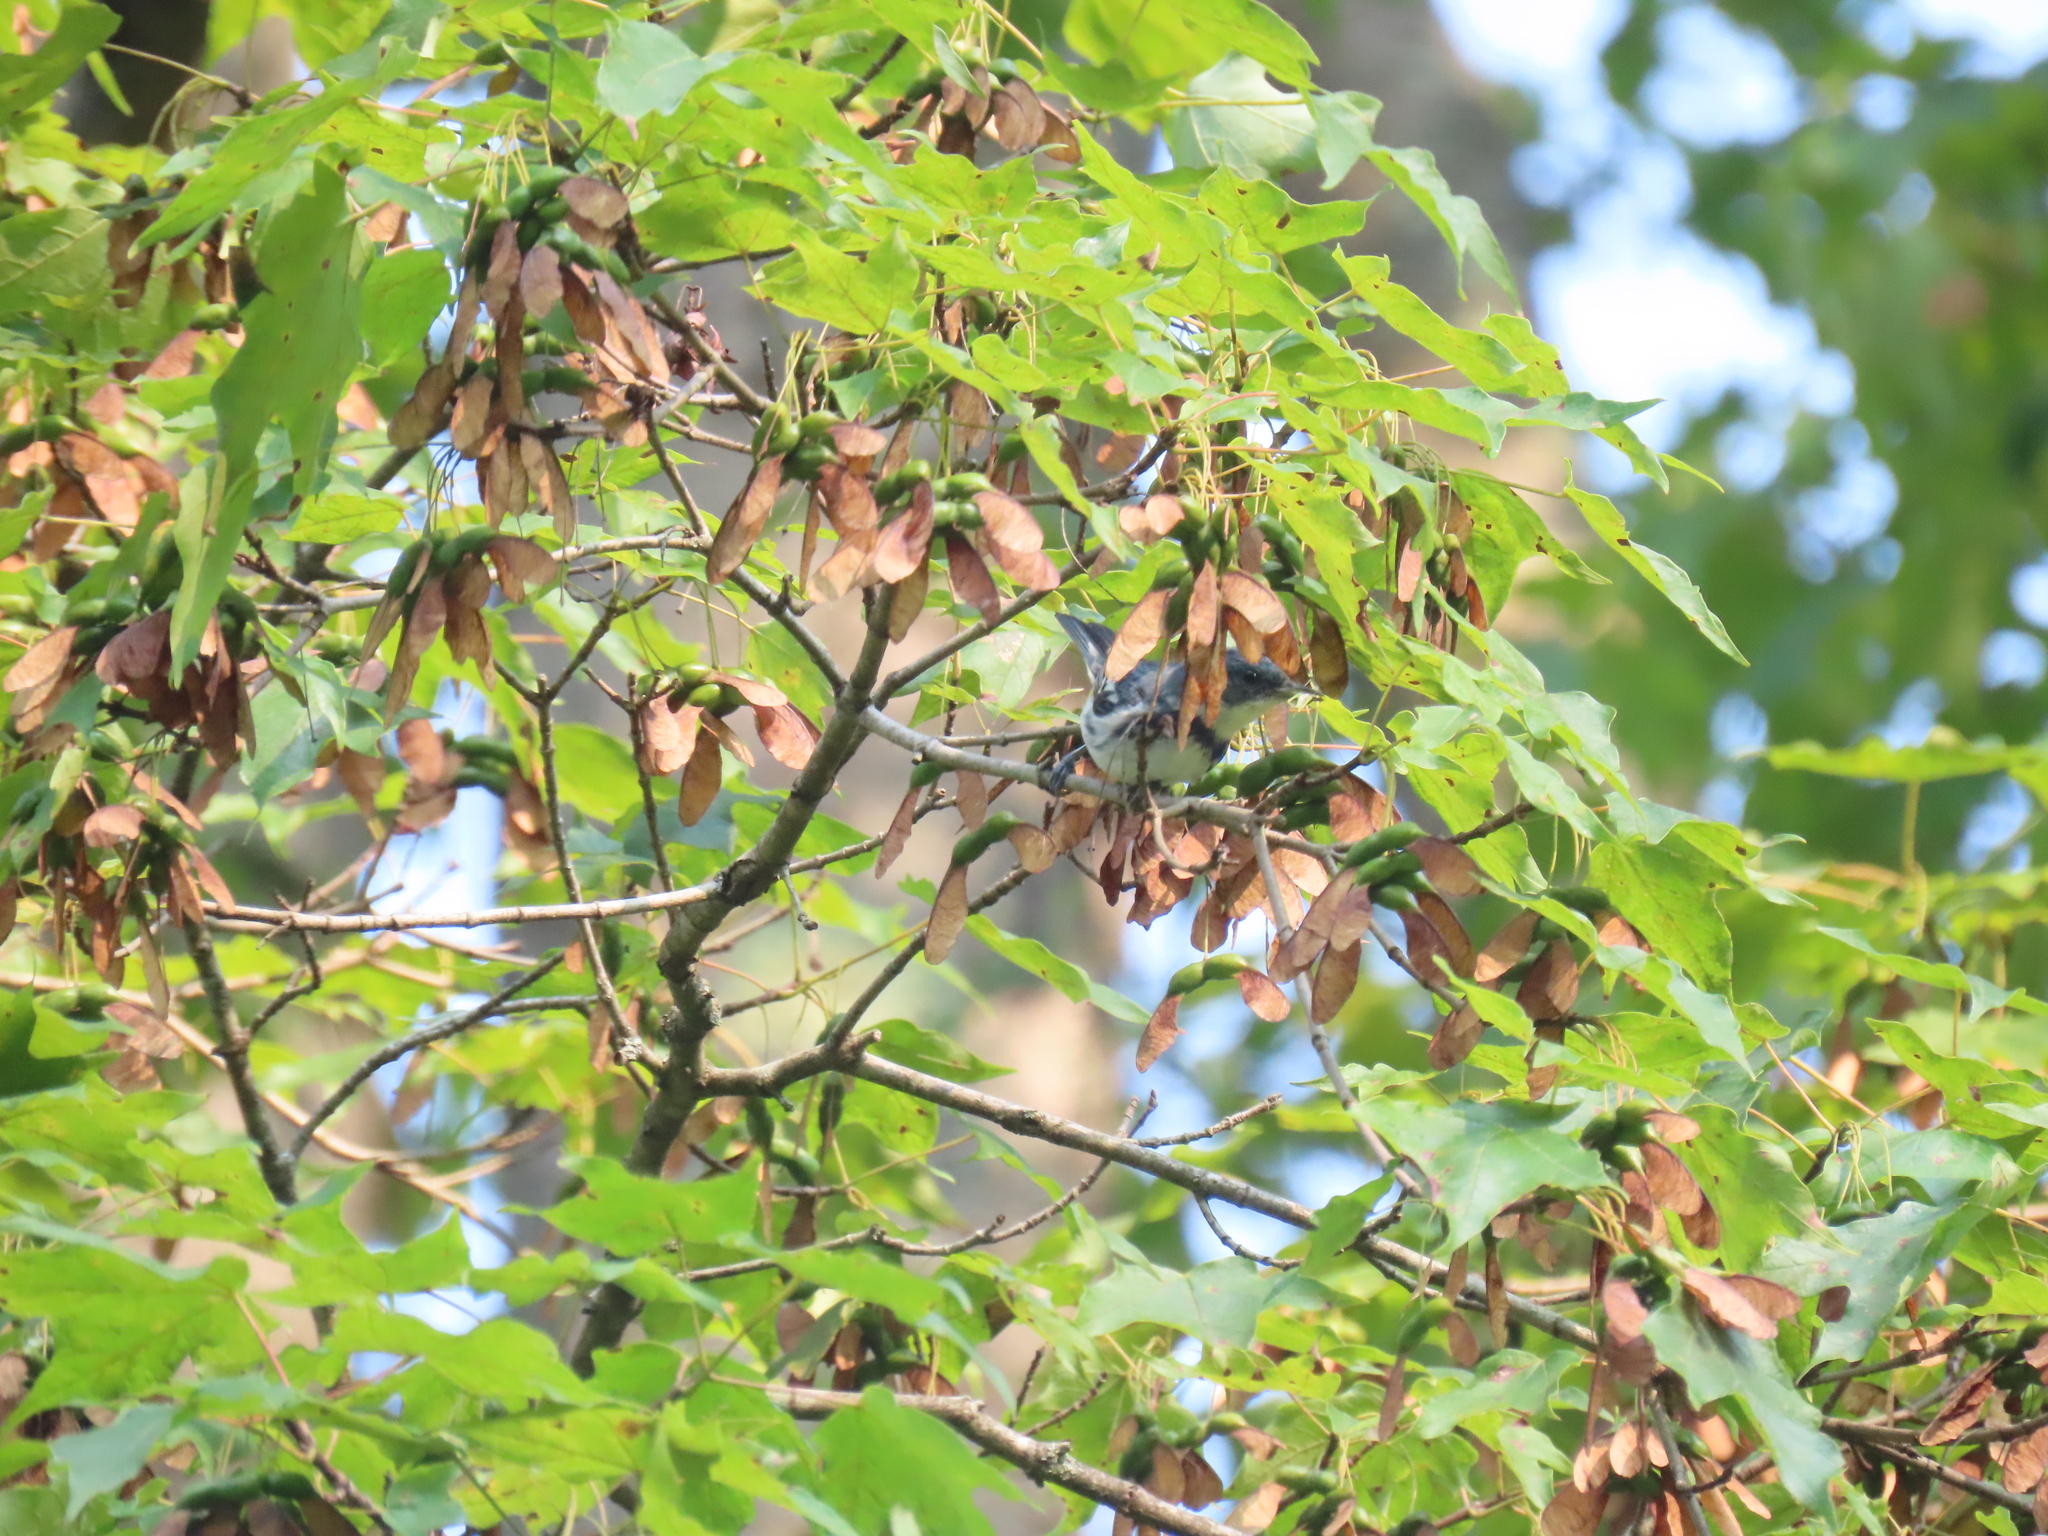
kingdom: Animalia
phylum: Chordata
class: Aves
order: Passeriformes
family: Parulidae
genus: Setophaga
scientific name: Setophaga cerulea
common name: Cerulean warbler
